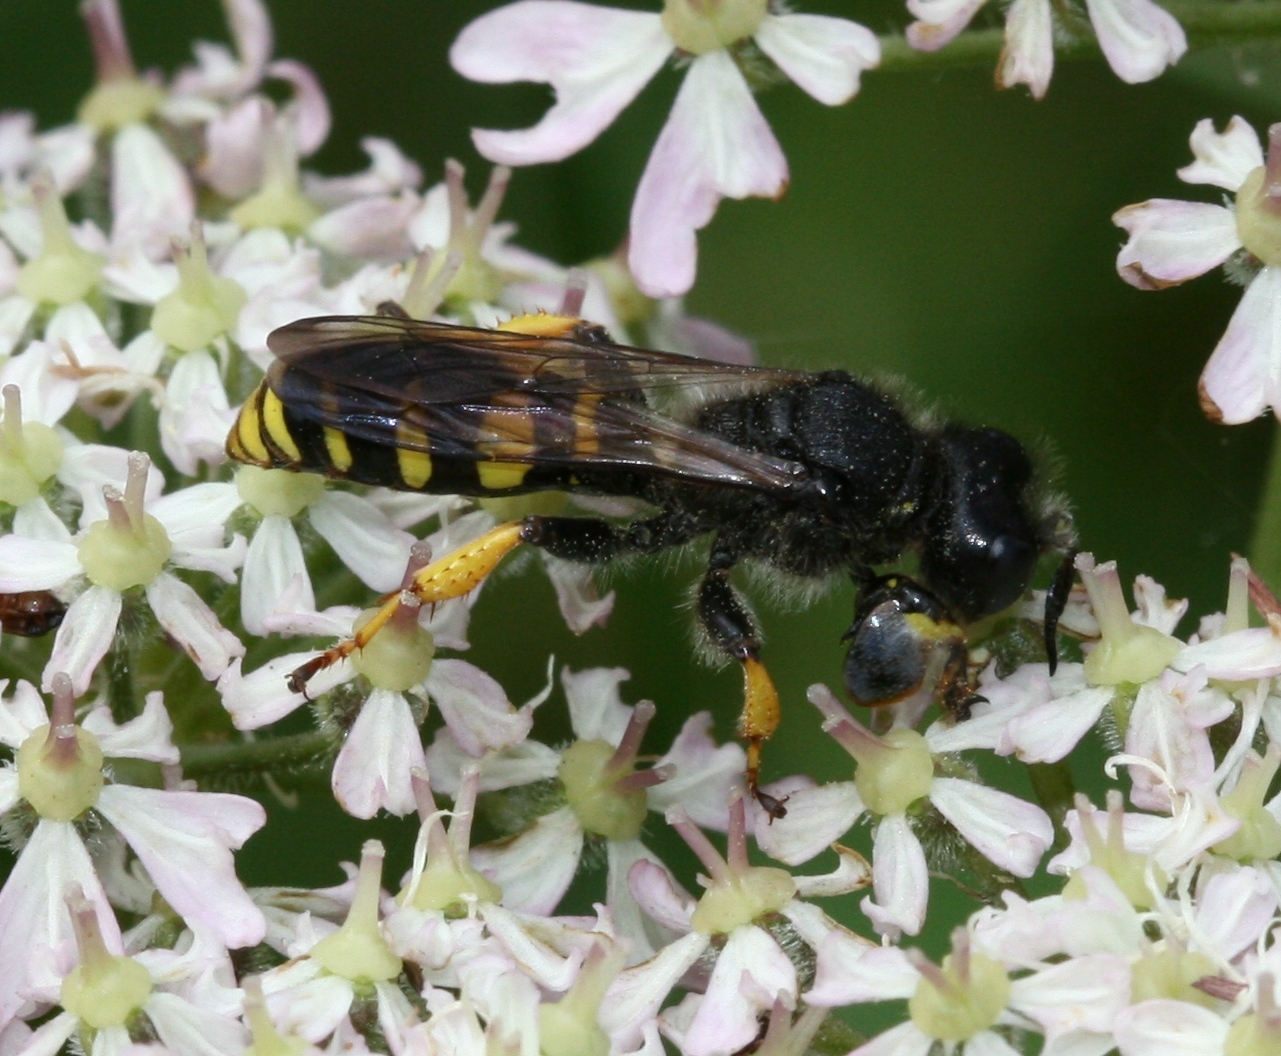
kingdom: Animalia
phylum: Arthropoda
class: Insecta
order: Hymenoptera
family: Crabronidae
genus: Crabro
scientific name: Crabro cribrarius
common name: Slender bodied digger wasp
